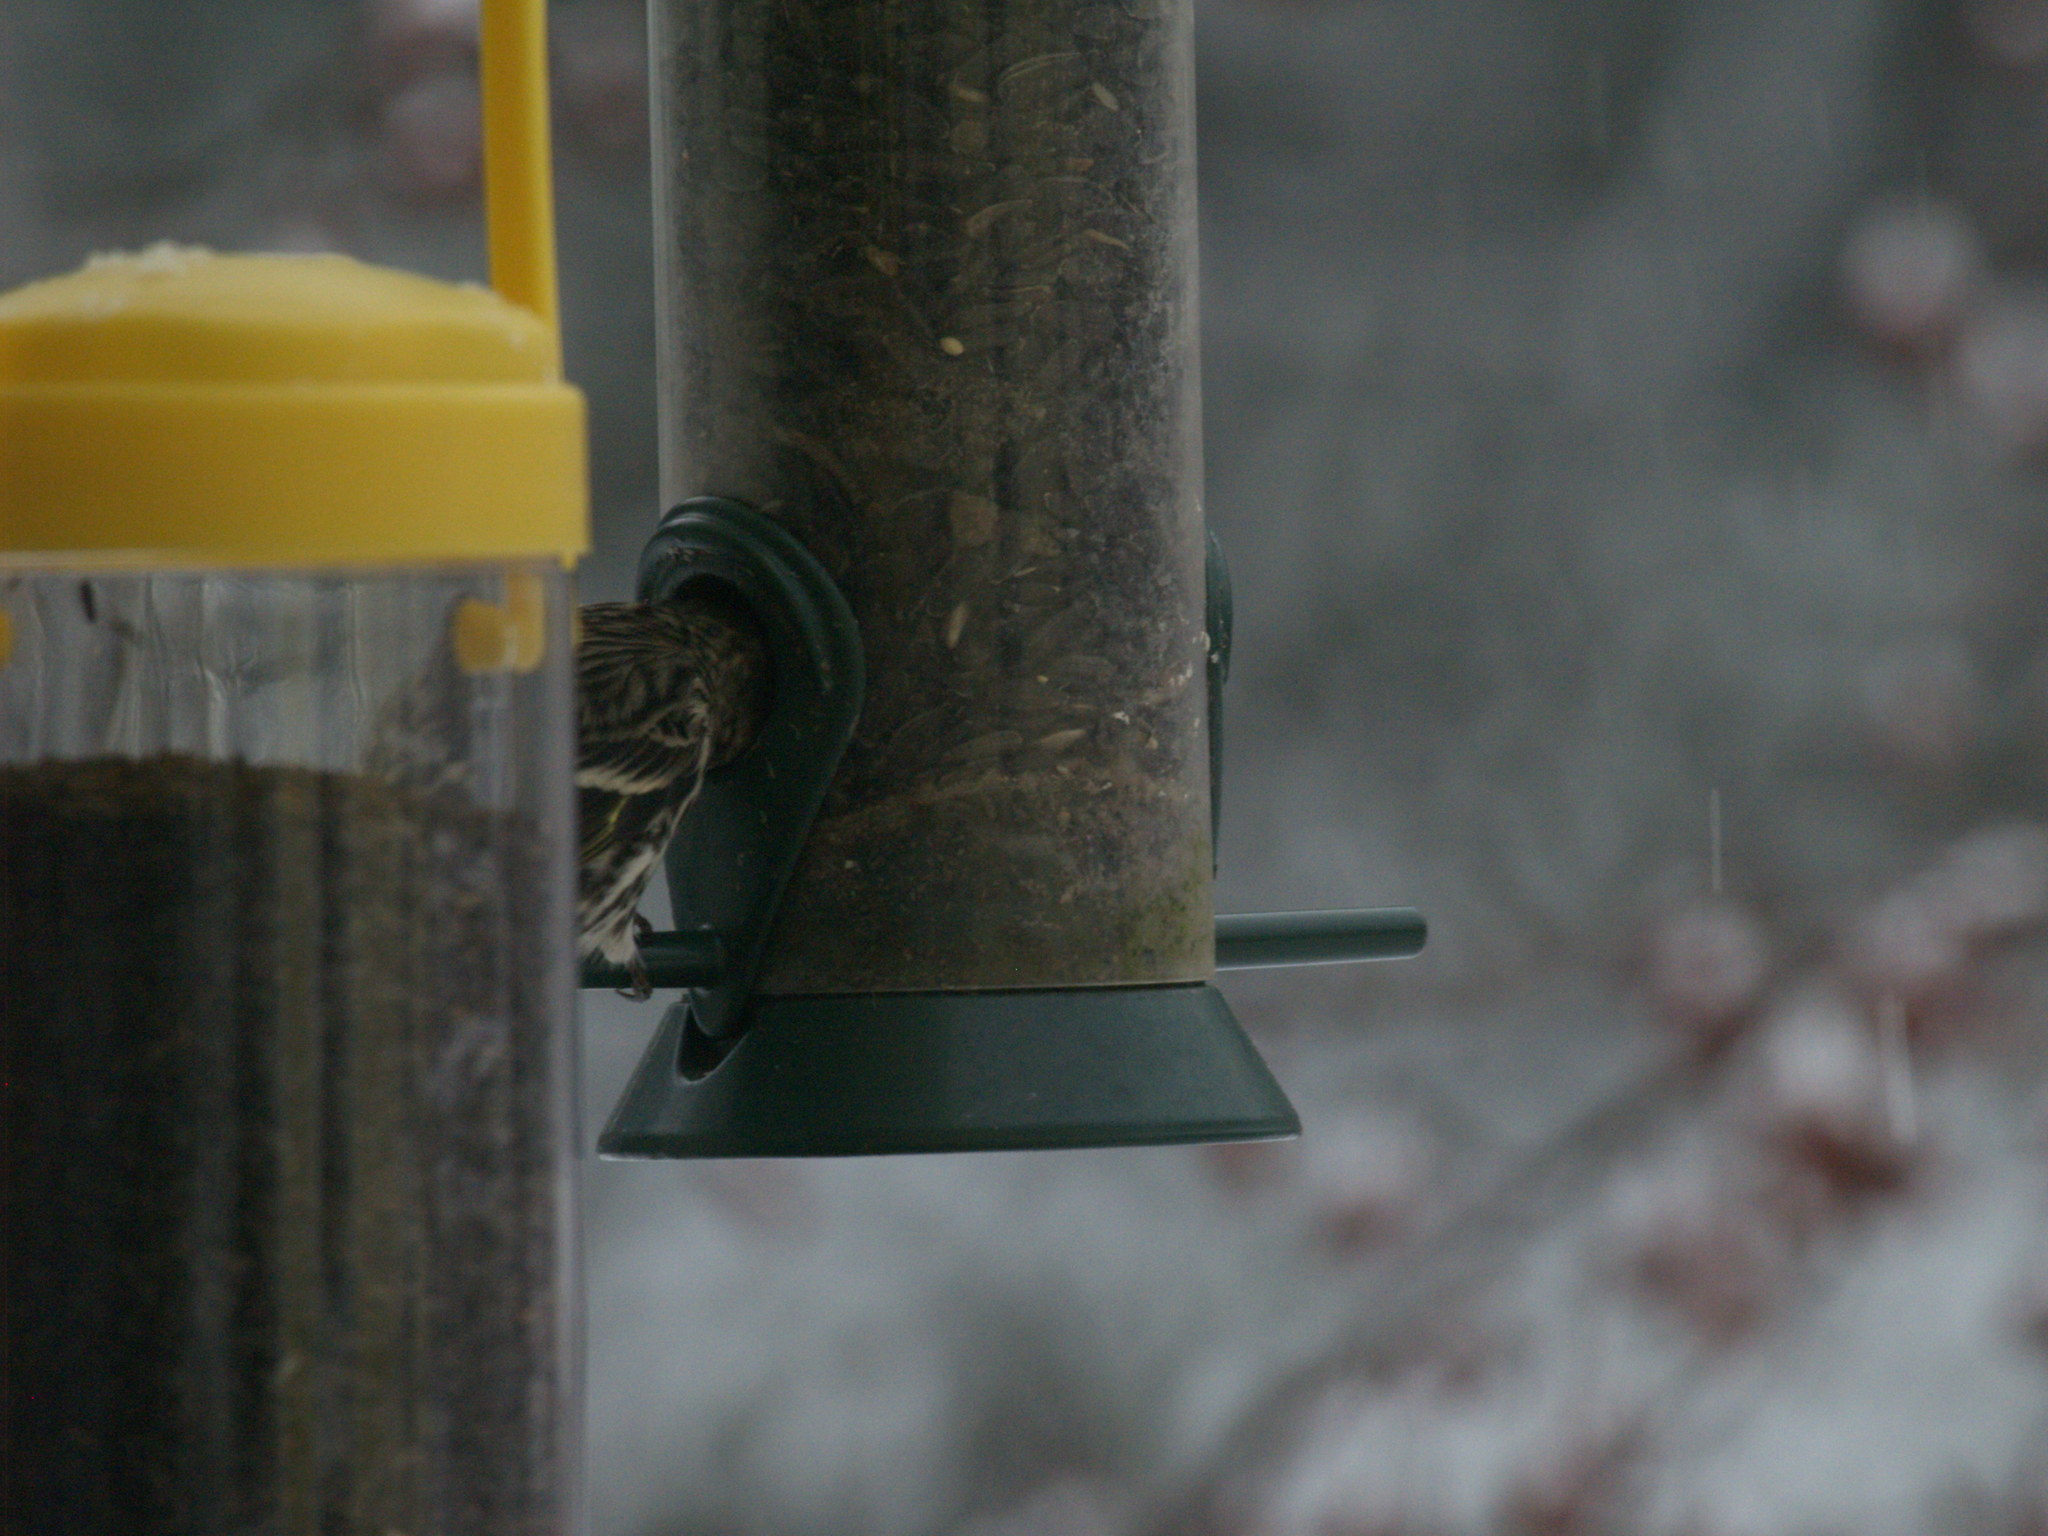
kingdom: Animalia
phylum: Chordata
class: Aves
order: Passeriformes
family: Fringillidae
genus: Spinus
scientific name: Spinus pinus
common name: Pine siskin
